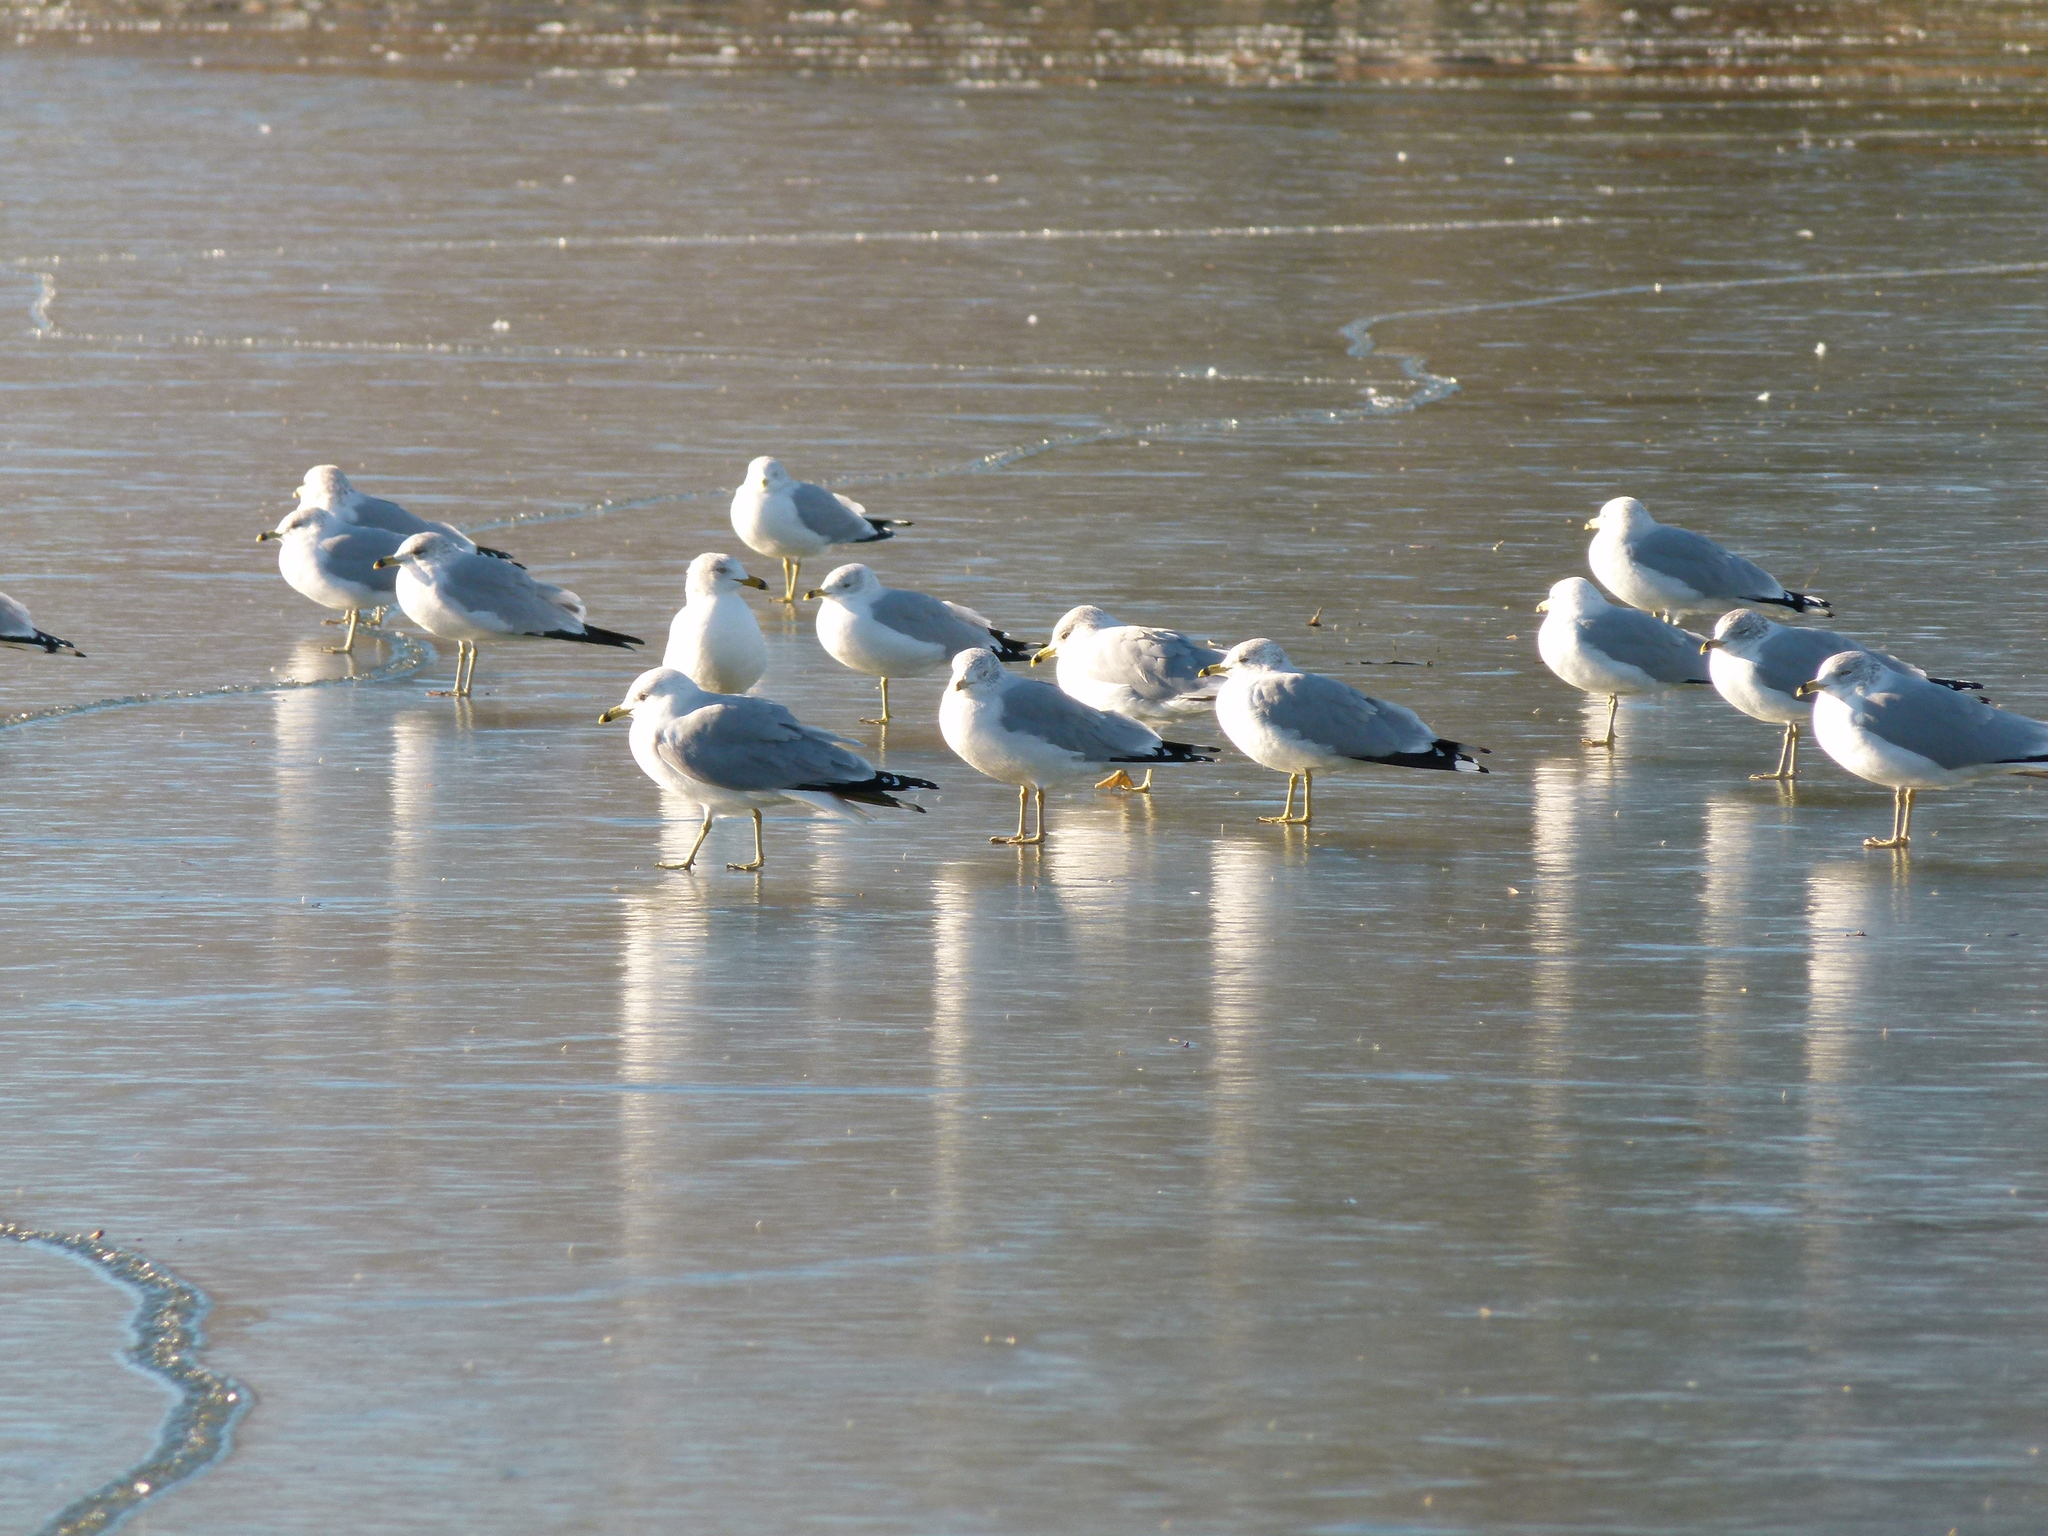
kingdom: Animalia
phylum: Chordata
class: Aves
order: Charadriiformes
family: Laridae
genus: Larus
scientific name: Larus delawarensis
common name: Ring-billed gull
